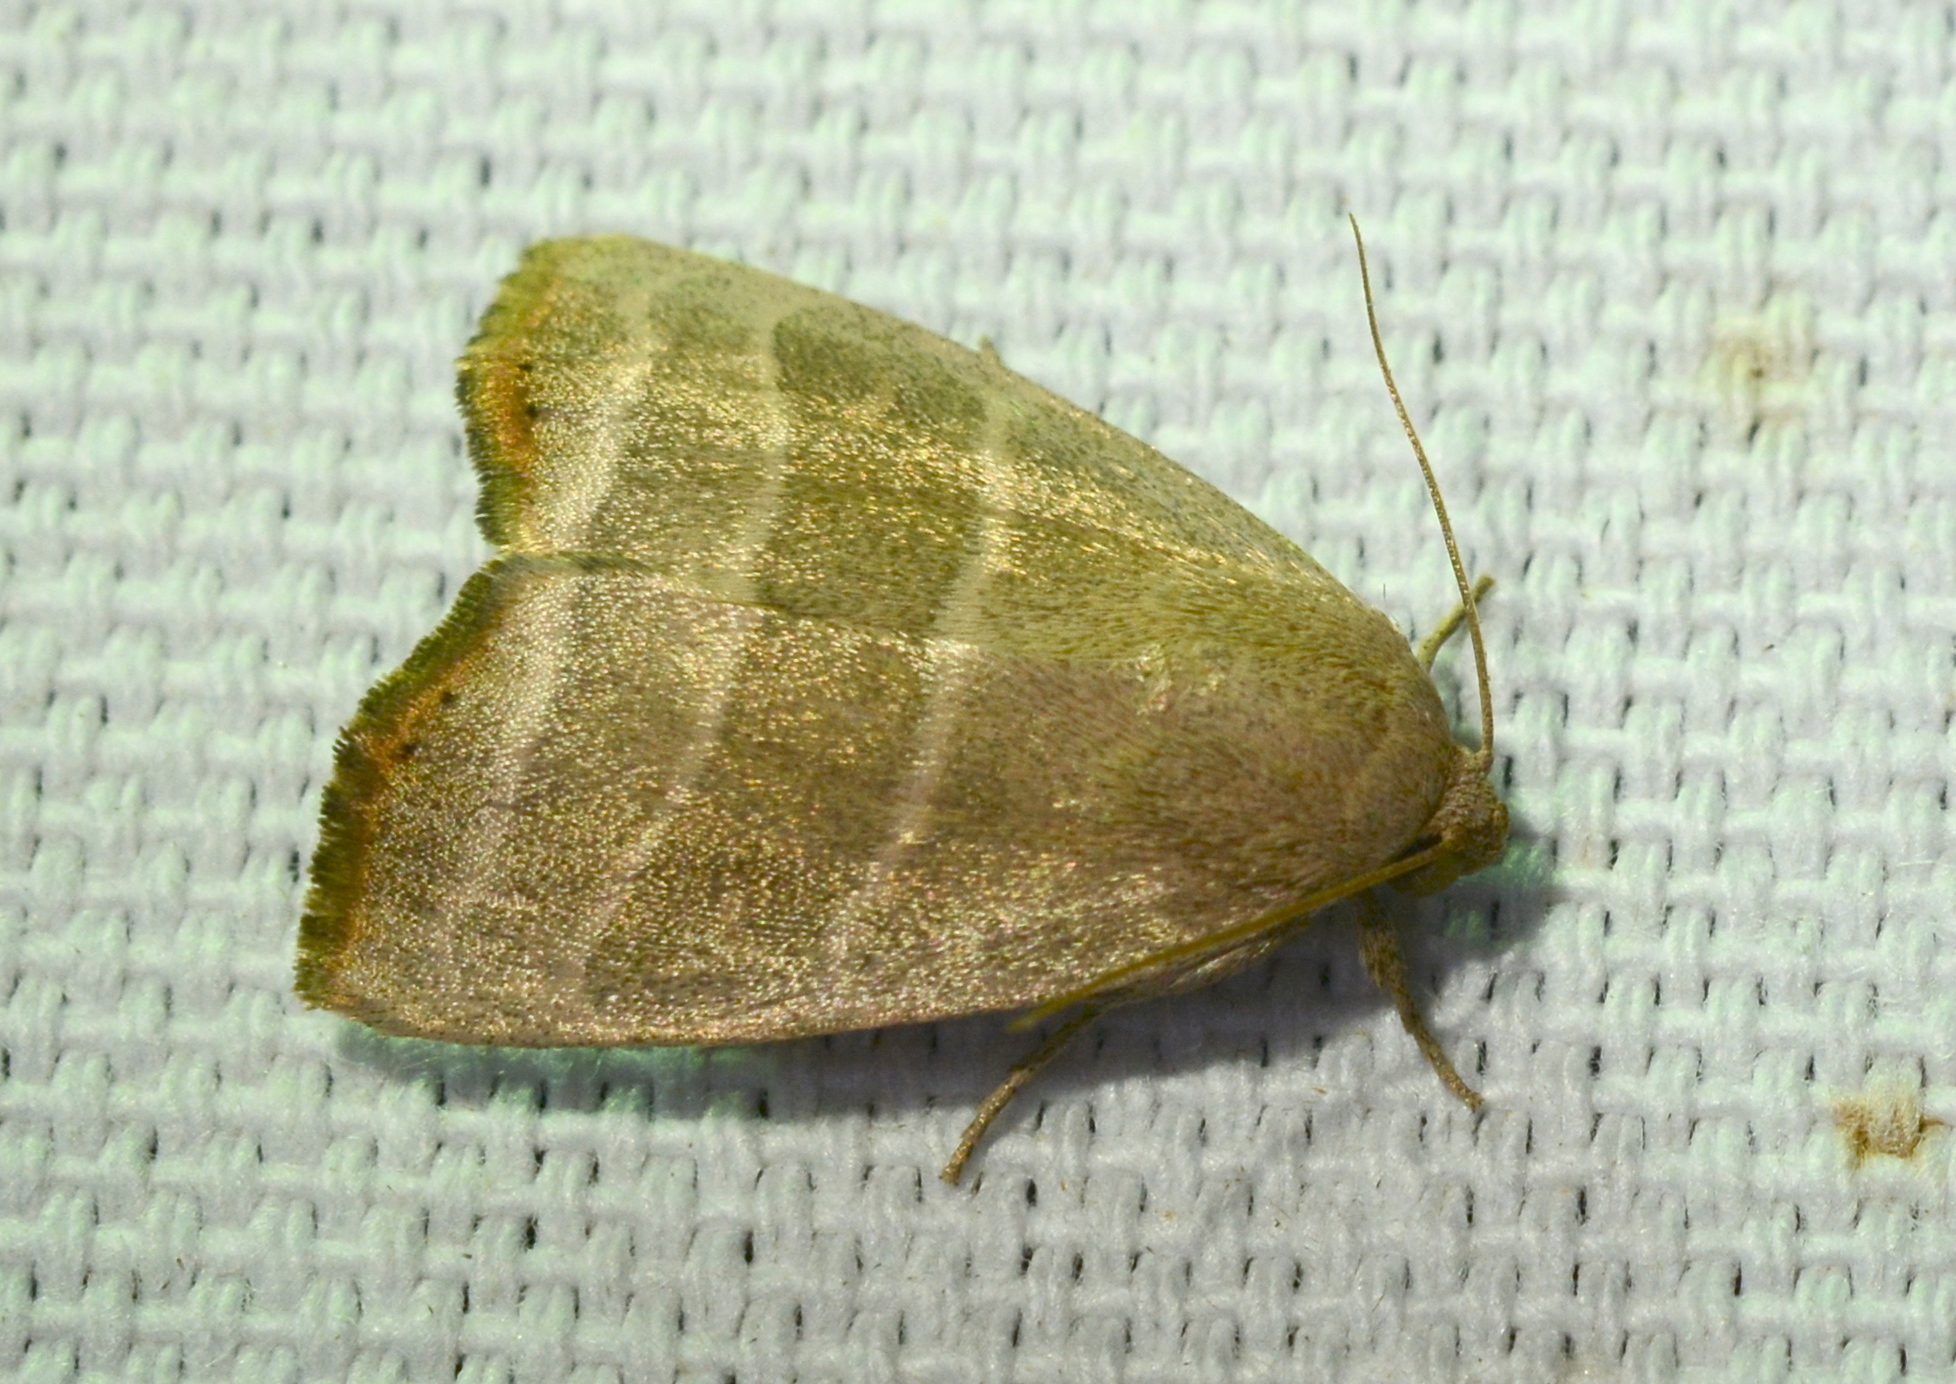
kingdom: Animalia
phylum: Arthropoda
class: Insecta
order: Lepidoptera
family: Noctuidae
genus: Bagisara
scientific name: Bagisara rectifascia
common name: Straight lined mallow moth
